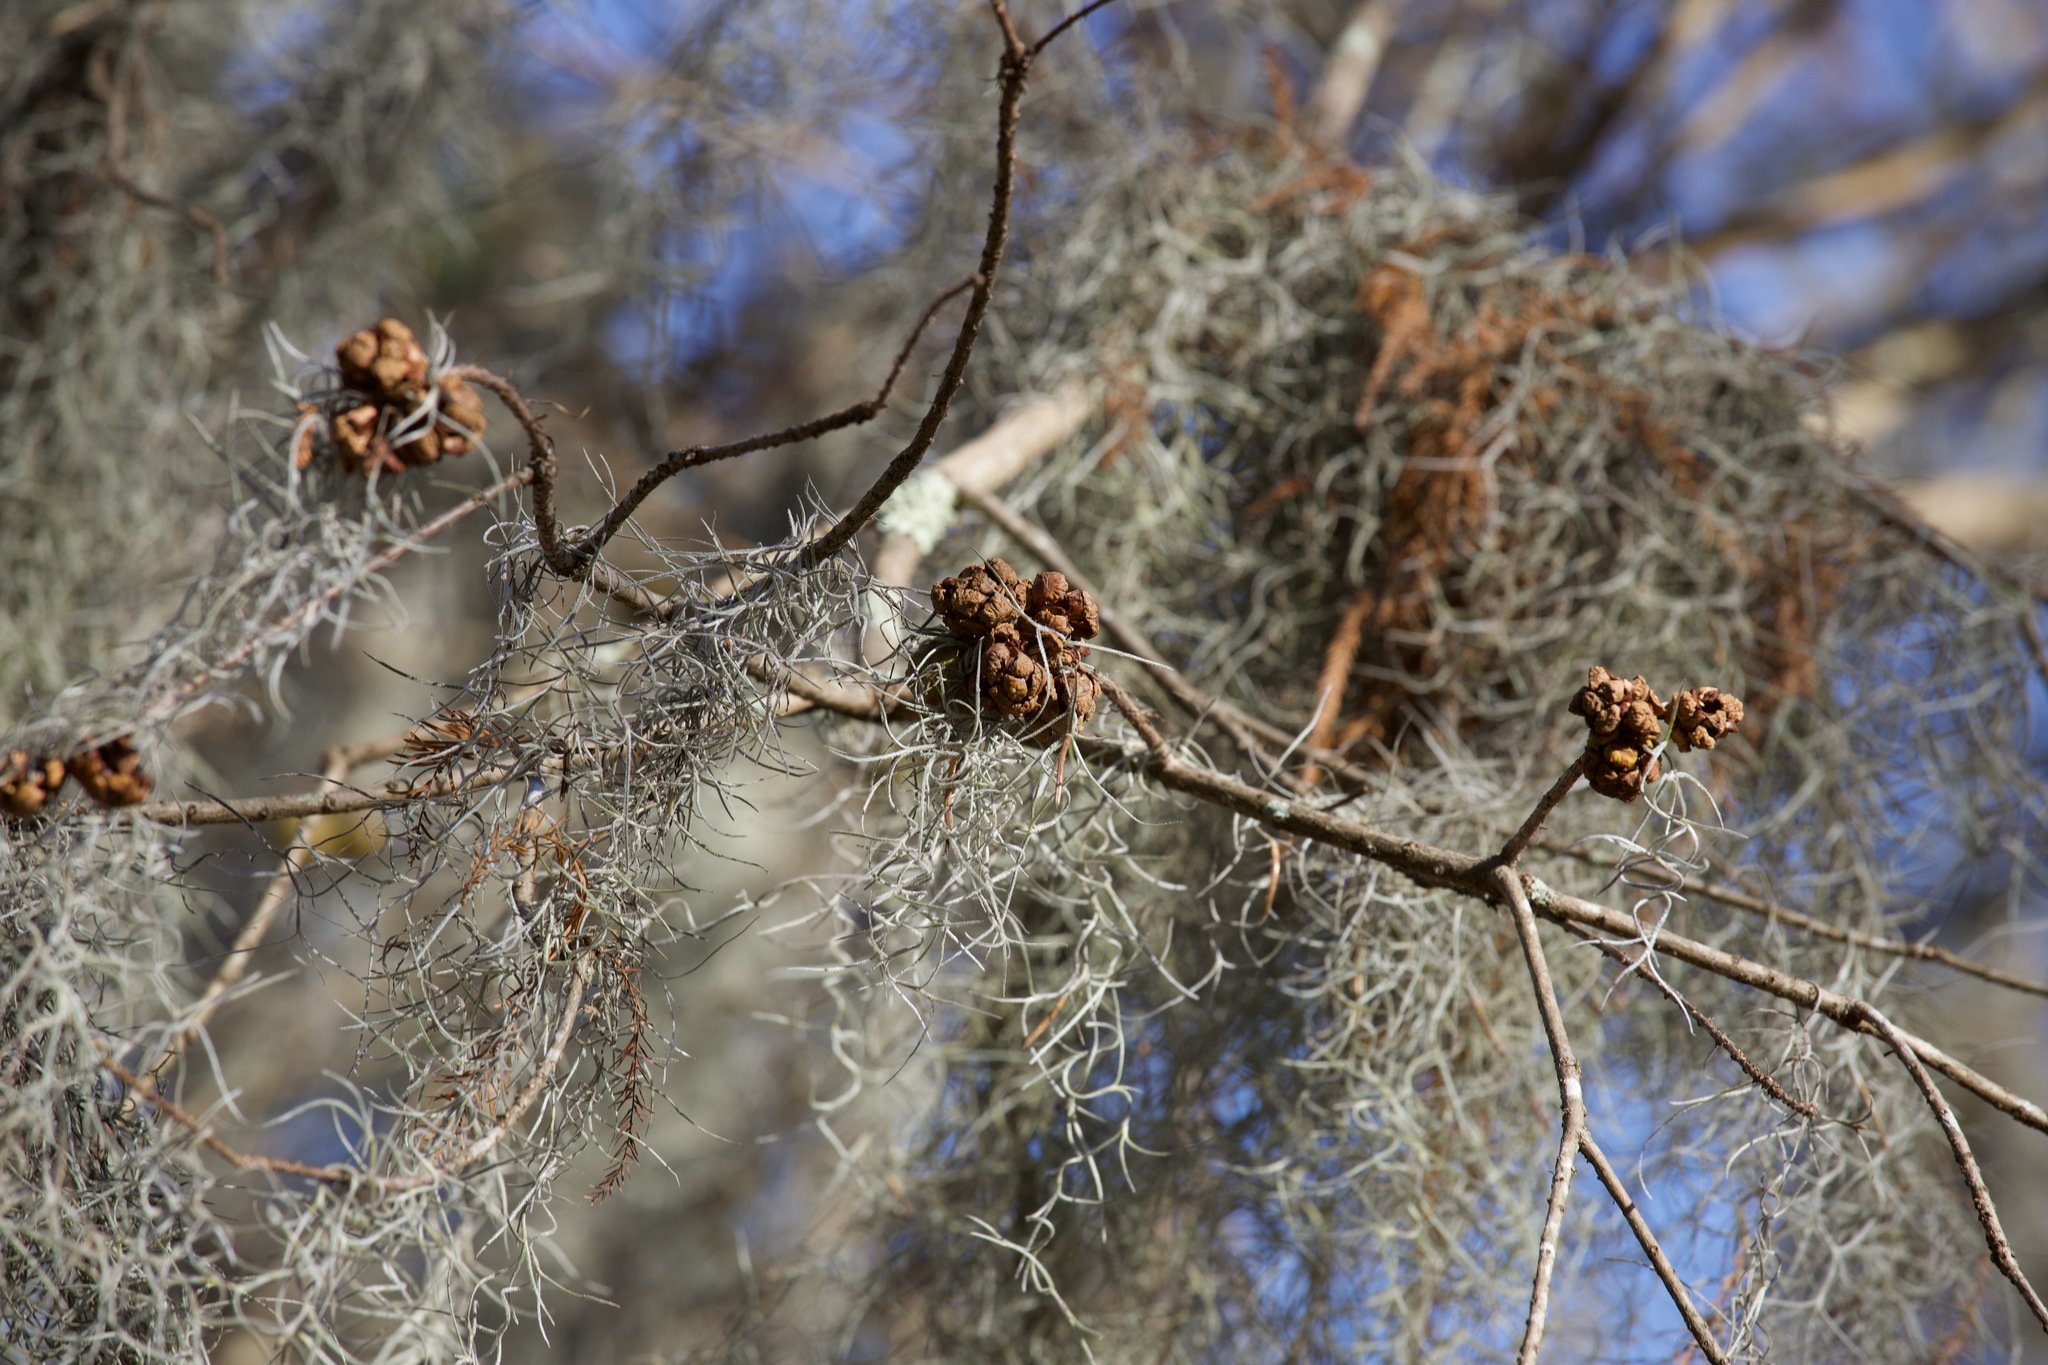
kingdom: Plantae
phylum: Tracheophyta
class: Pinopsida
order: Pinales
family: Cupressaceae
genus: Taxodium
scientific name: Taxodium distichum
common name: Bald cypress
